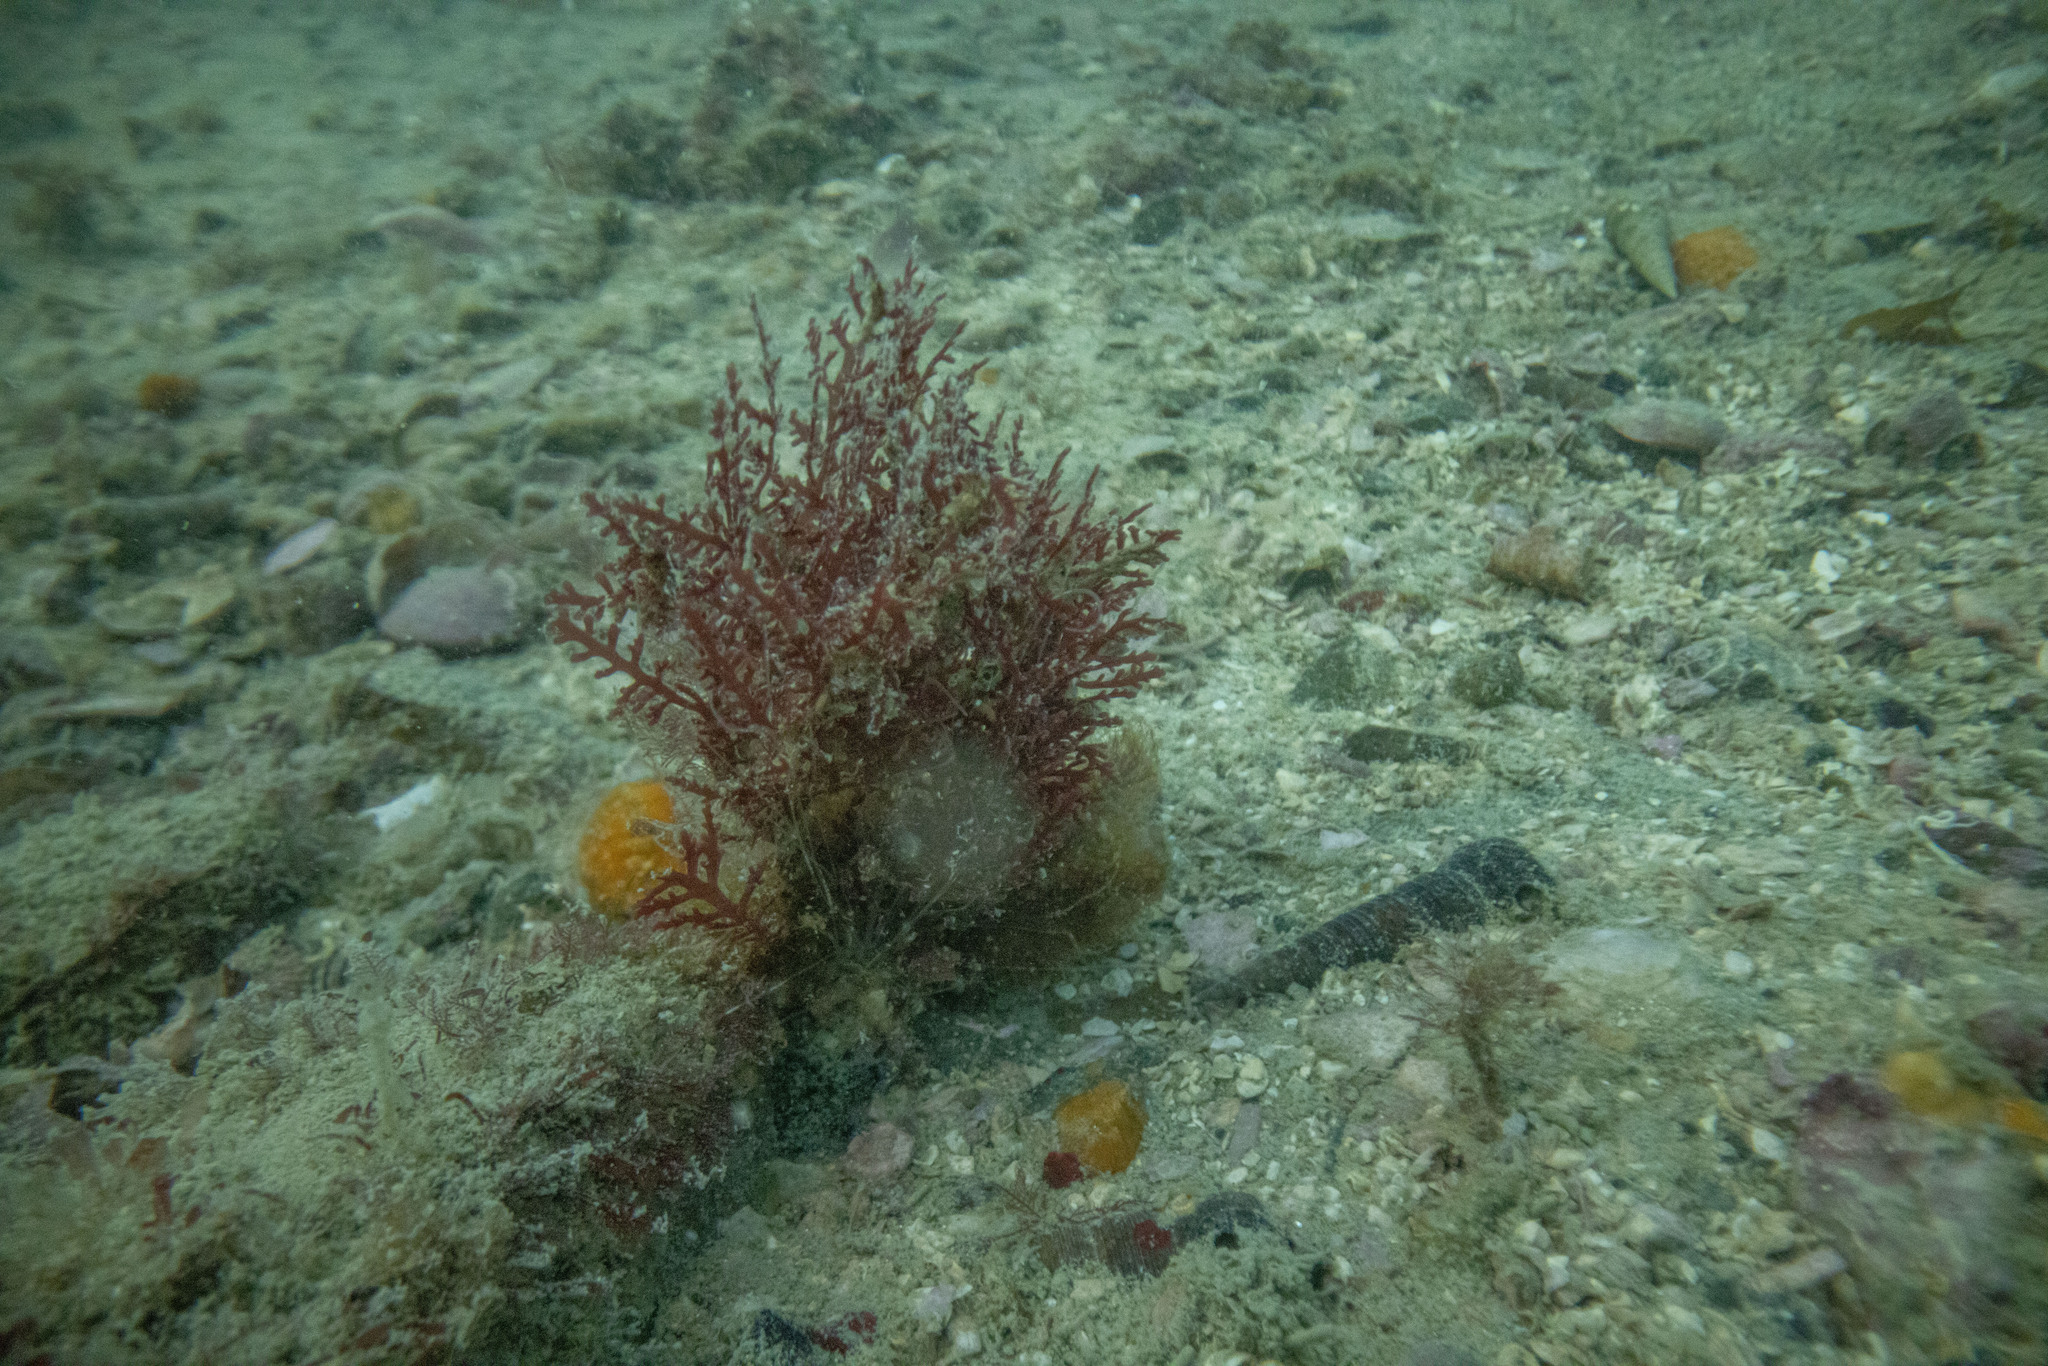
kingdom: Plantae
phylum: Rhodophyta
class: Florideophyceae
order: Gelidiales
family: Pterocladiaceae
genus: Pterocladiella
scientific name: Pterocladiella capillacea
